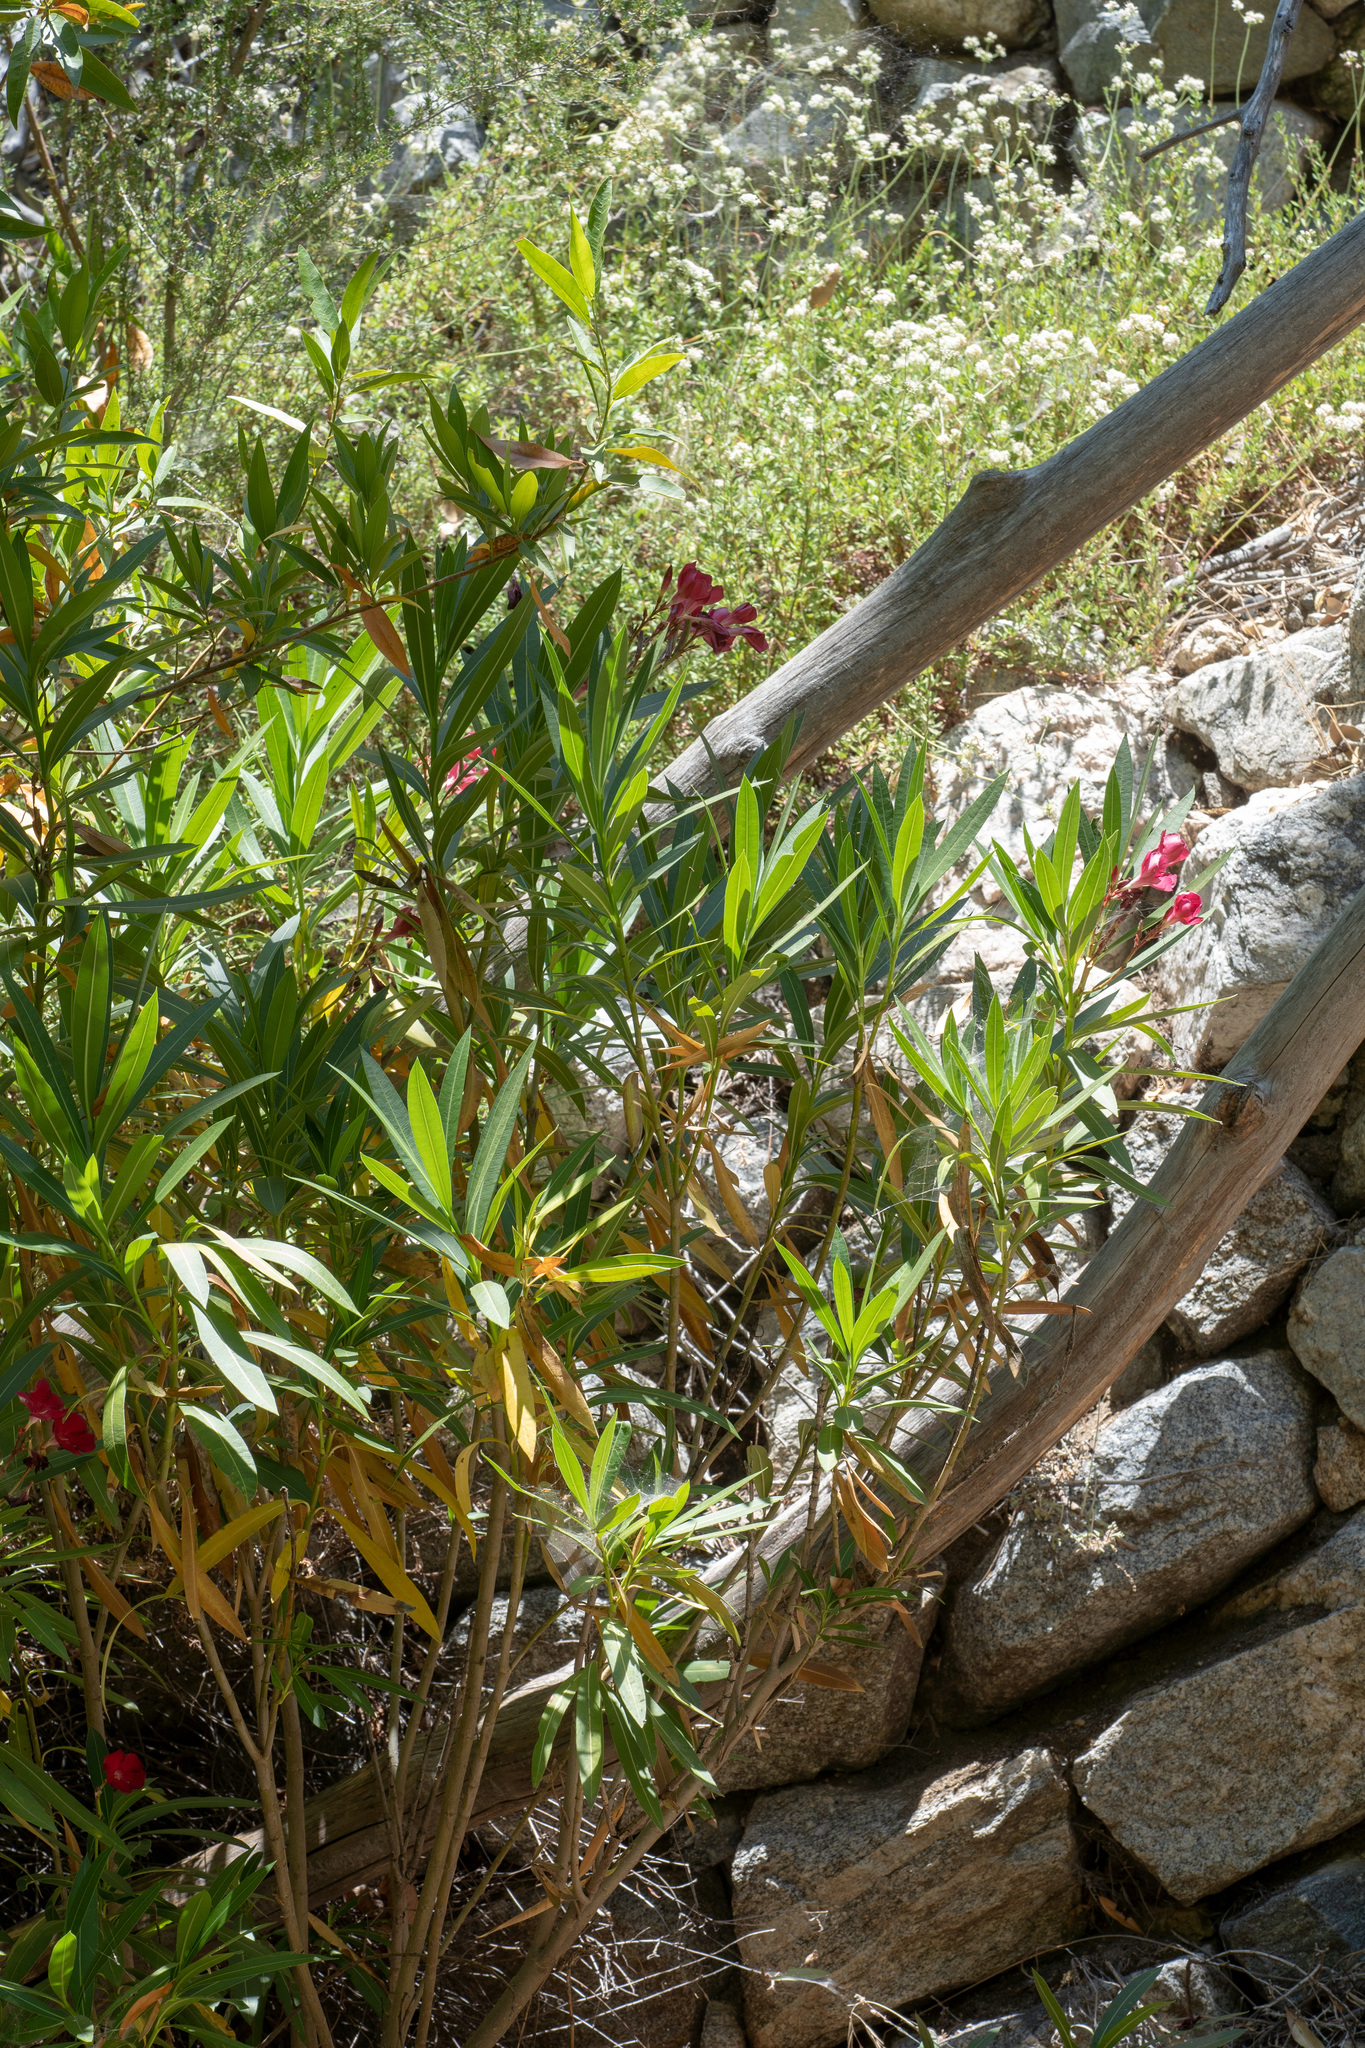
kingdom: Plantae
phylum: Tracheophyta
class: Magnoliopsida
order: Gentianales
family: Apocynaceae
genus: Nerium
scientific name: Nerium oleander
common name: Oleander
